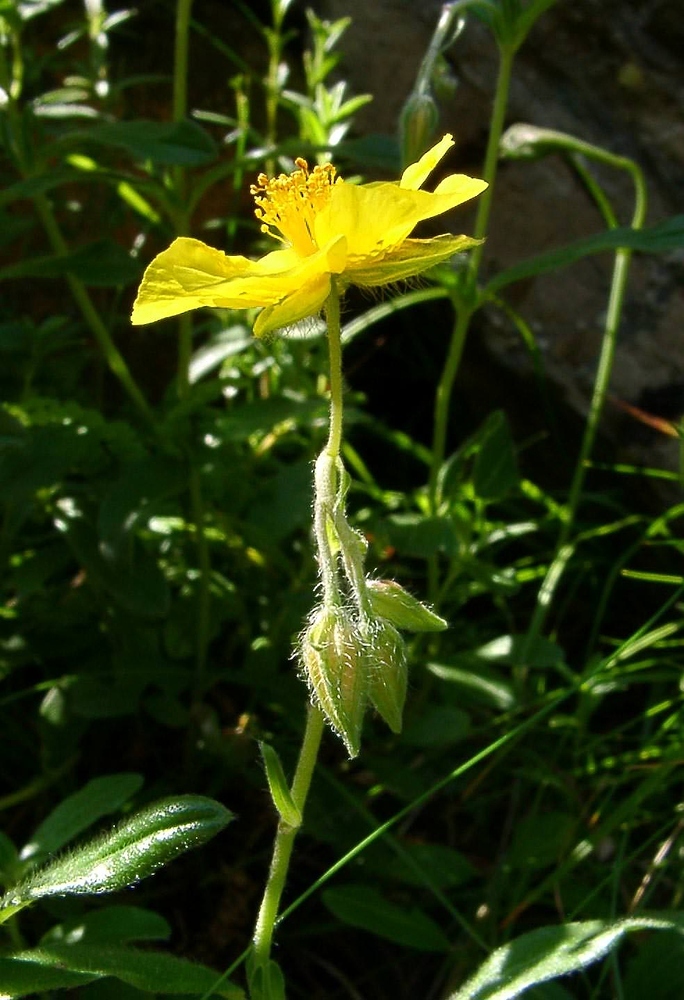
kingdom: Plantae
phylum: Tracheophyta
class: Magnoliopsida
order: Malvales
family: Cistaceae
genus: Helianthemum
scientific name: Helianthemum nummularium
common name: Common rock-rose
